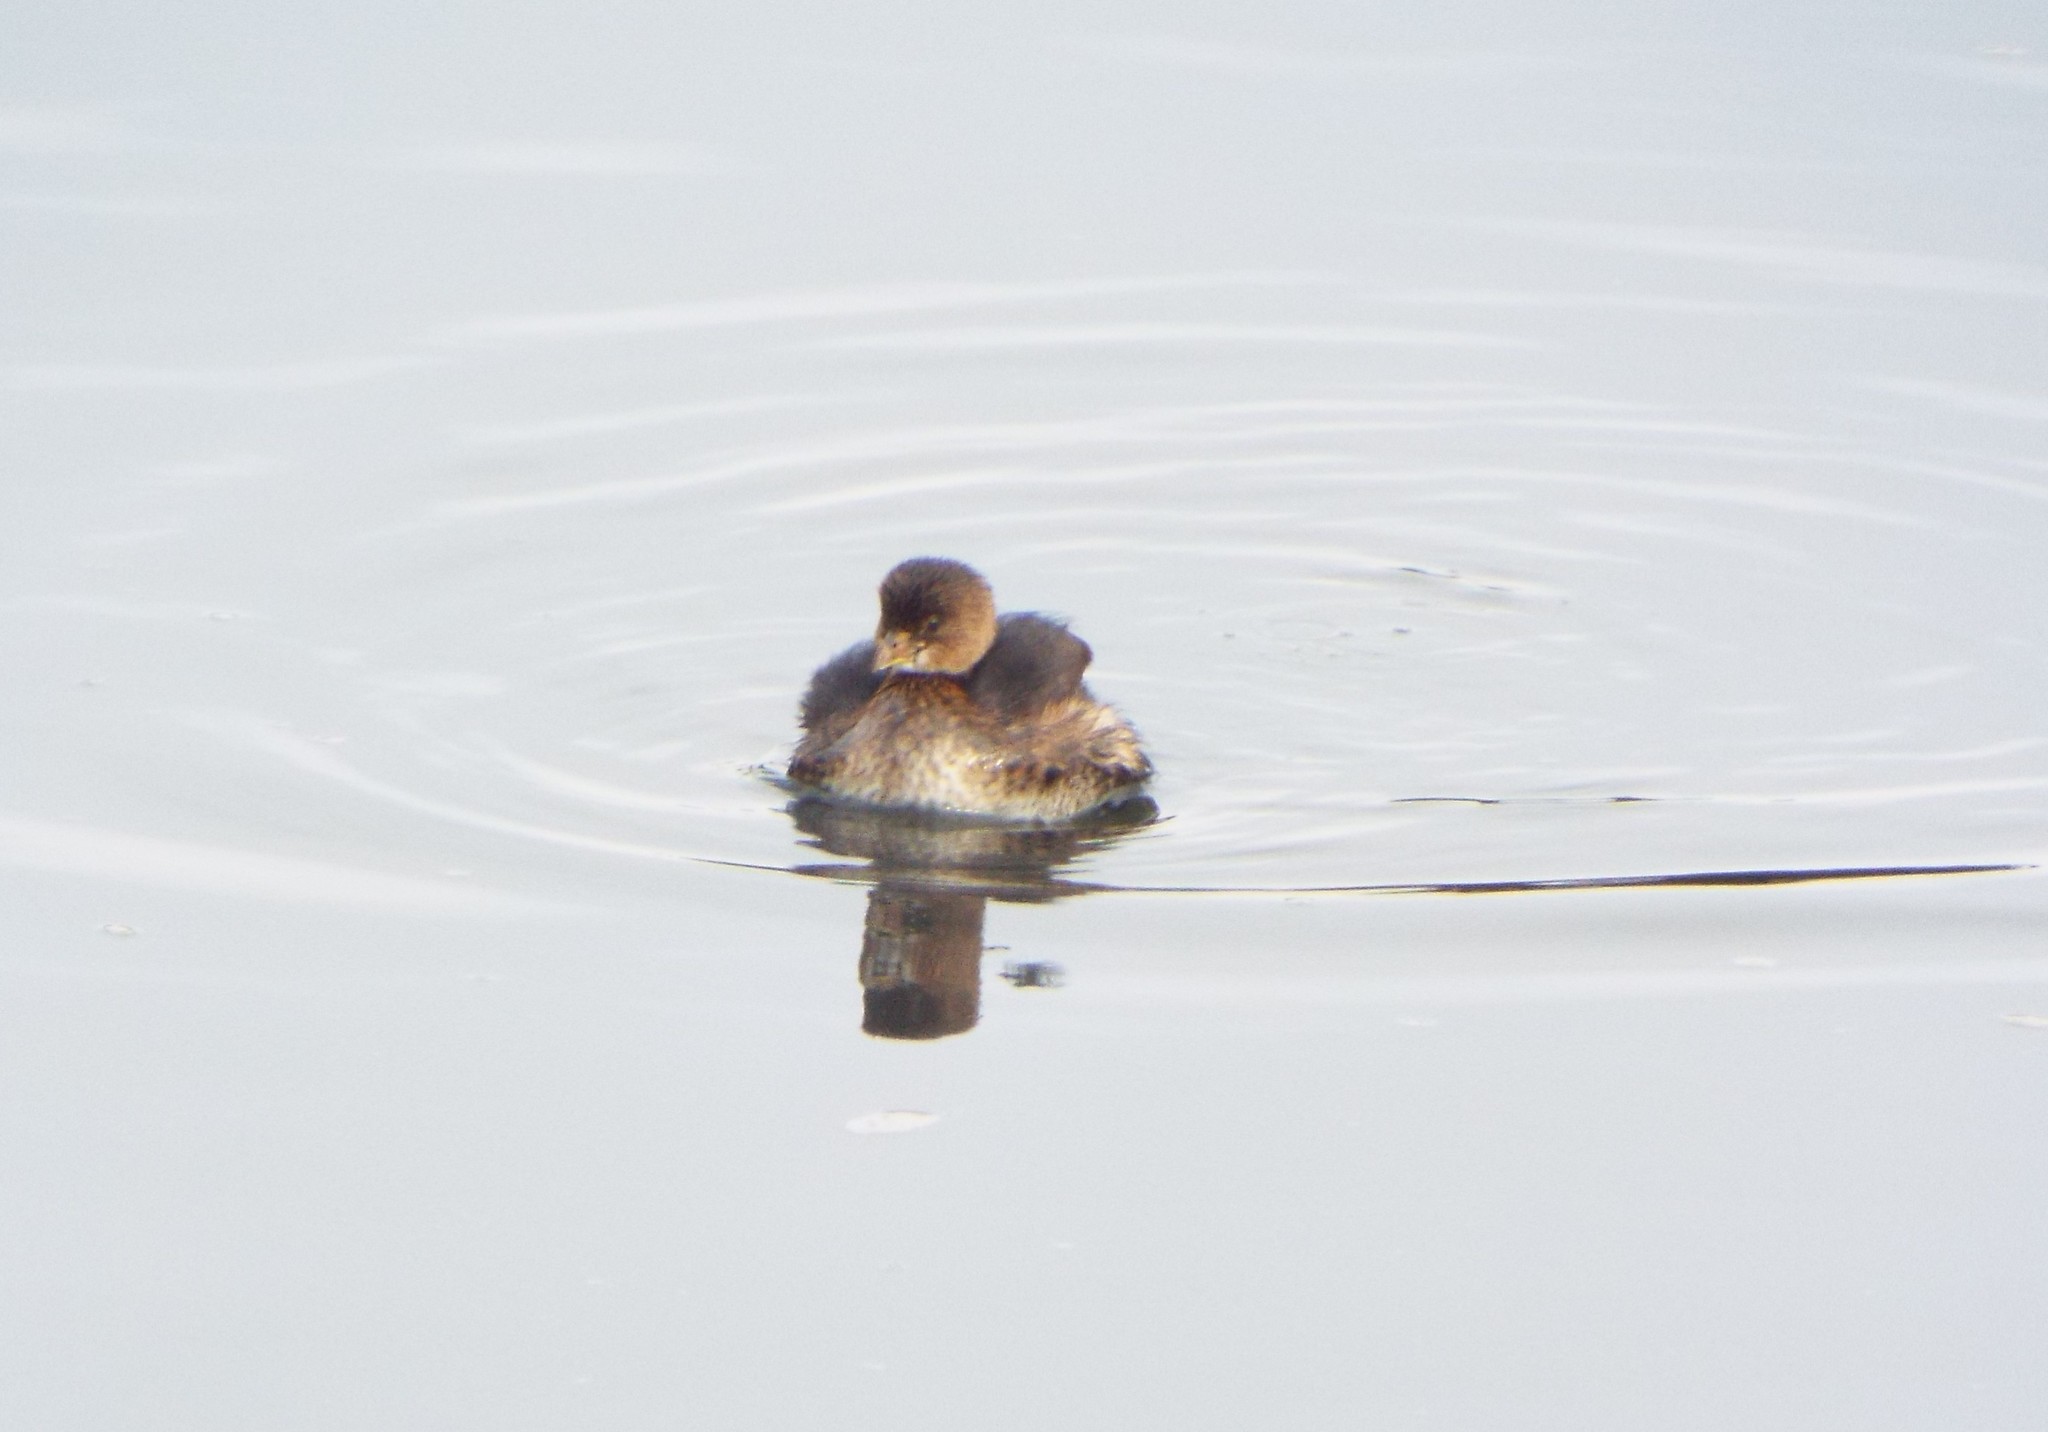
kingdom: Animalia
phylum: Chordata
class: Aves
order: Podicipediformes
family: Podicipedidae
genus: Podilymbus
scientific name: Podilymbus podiceps
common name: Pied-billed grebe
